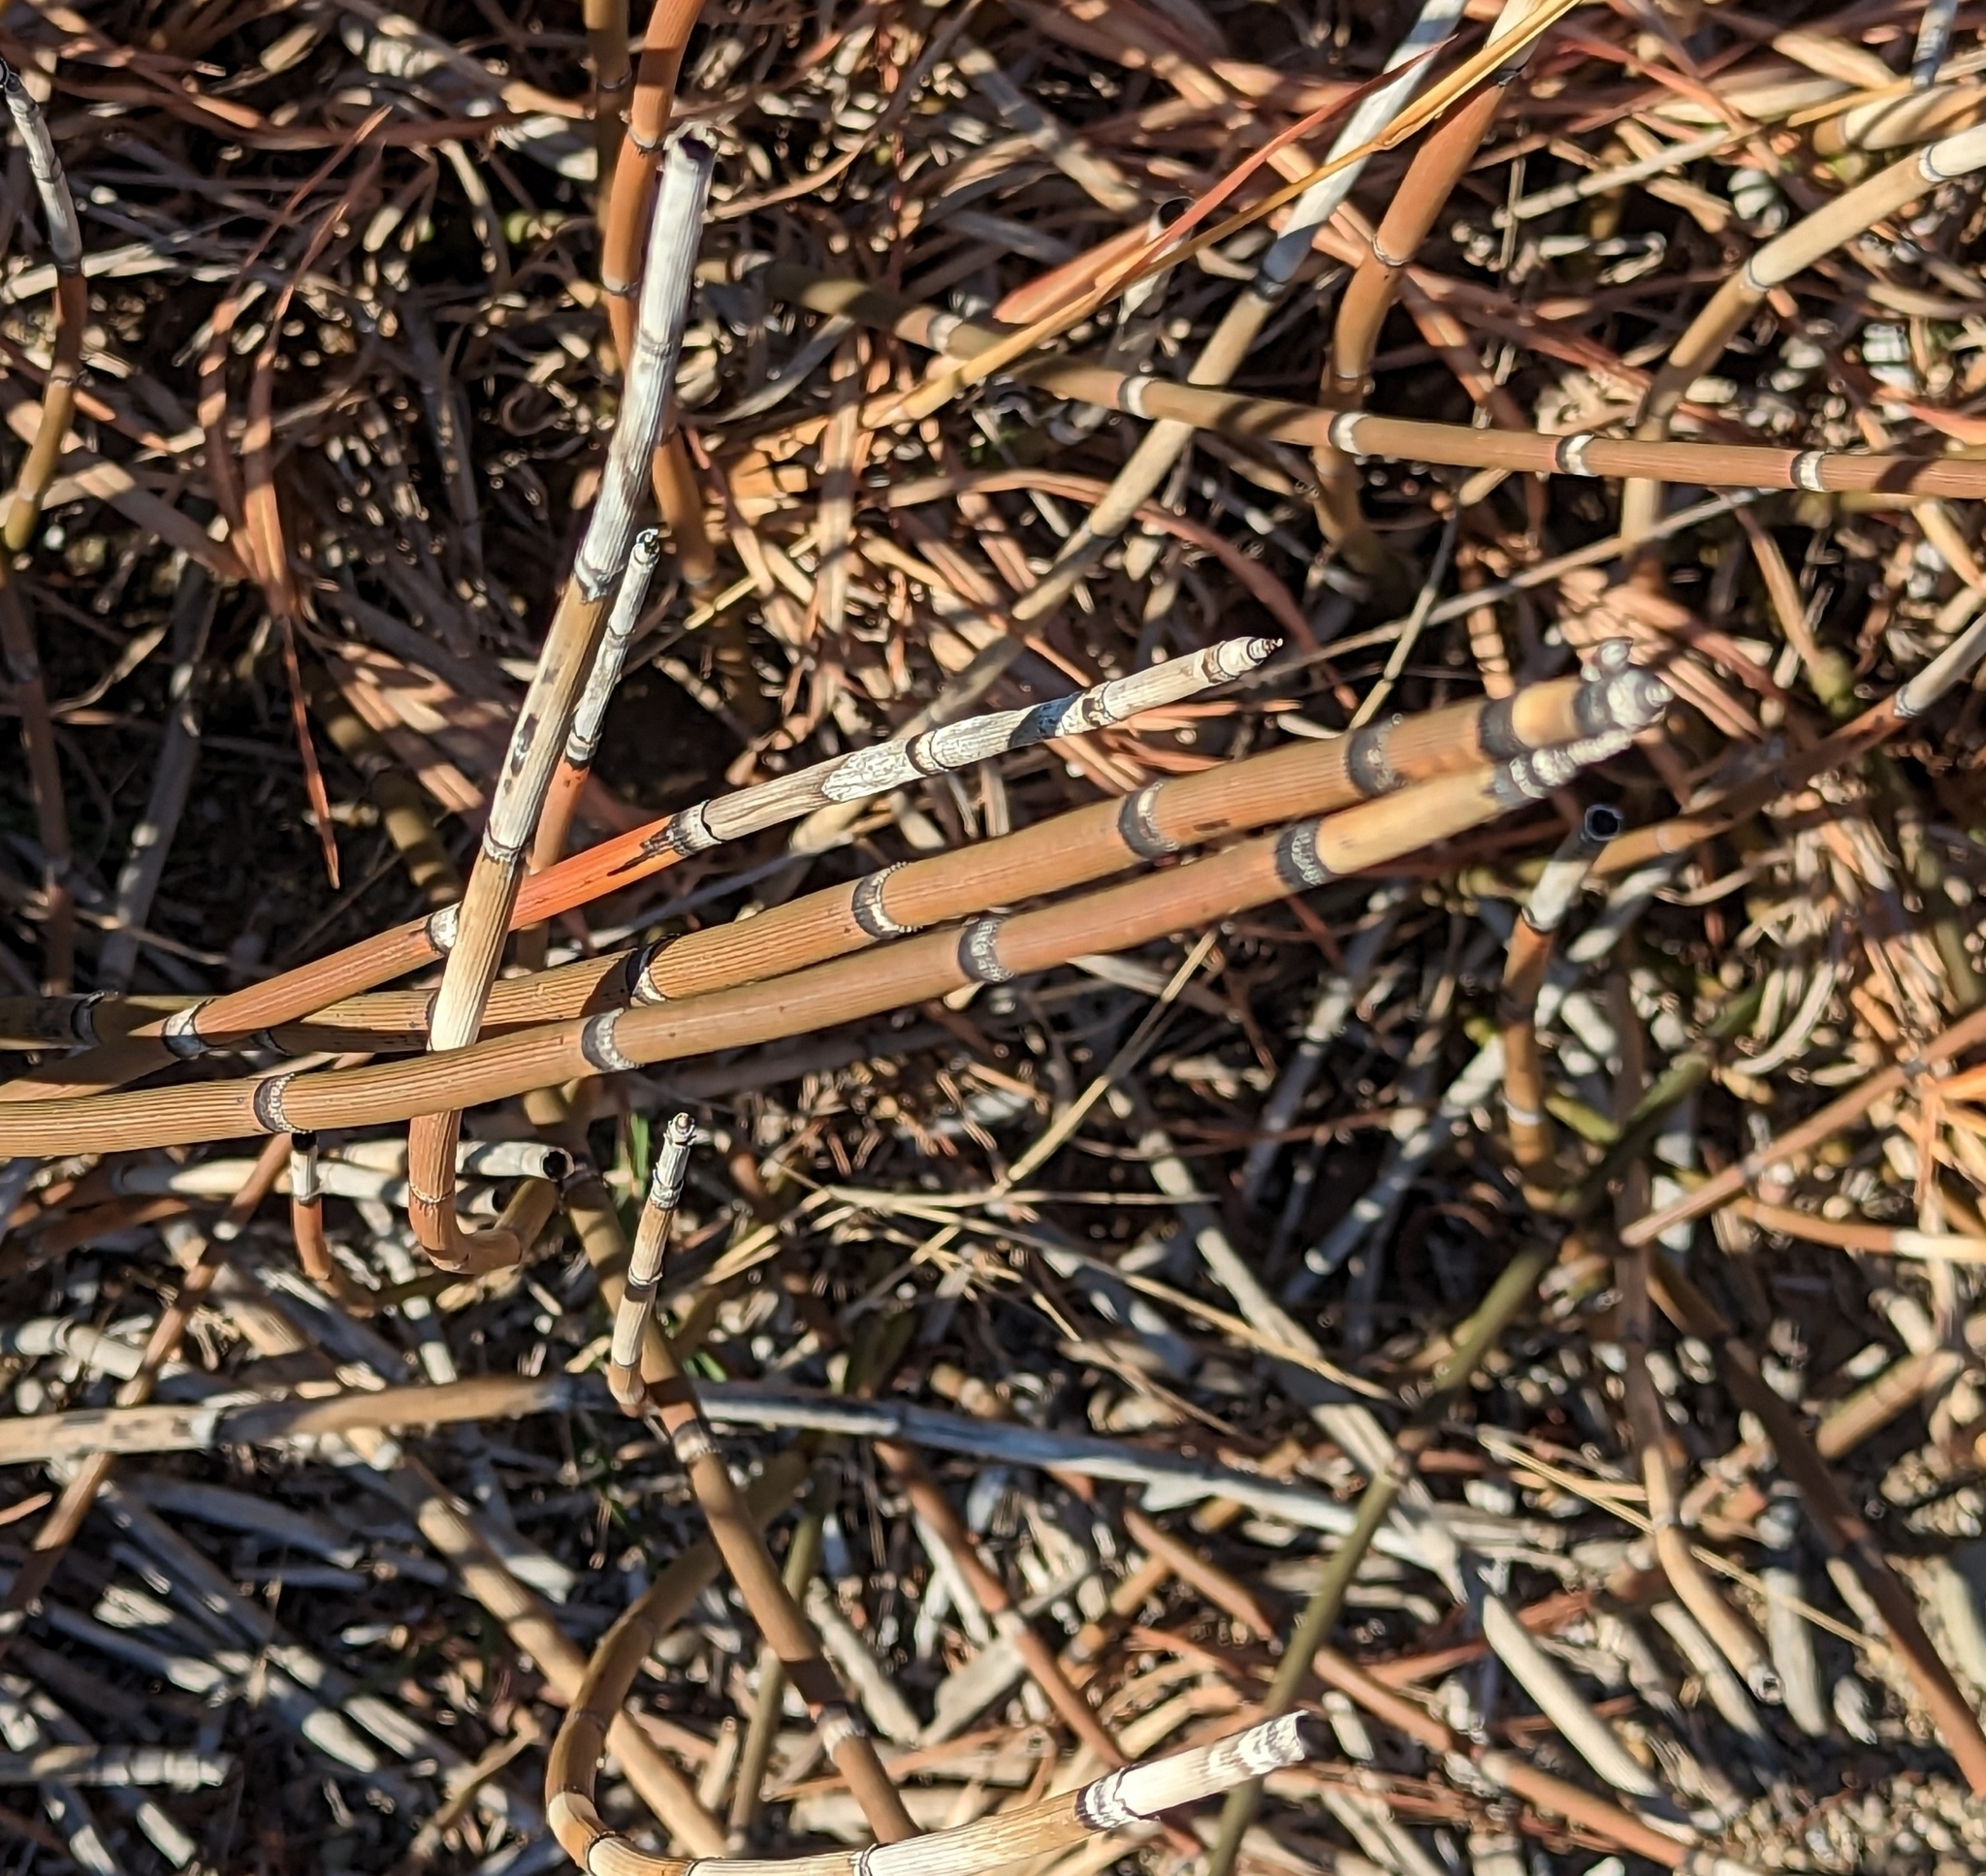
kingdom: Plantae
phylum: Tracheophyta
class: Polypodiopsida
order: Equisetales
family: Equisetaceae
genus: Equisetum
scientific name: Equisetum hyemale
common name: Rough horsetail
